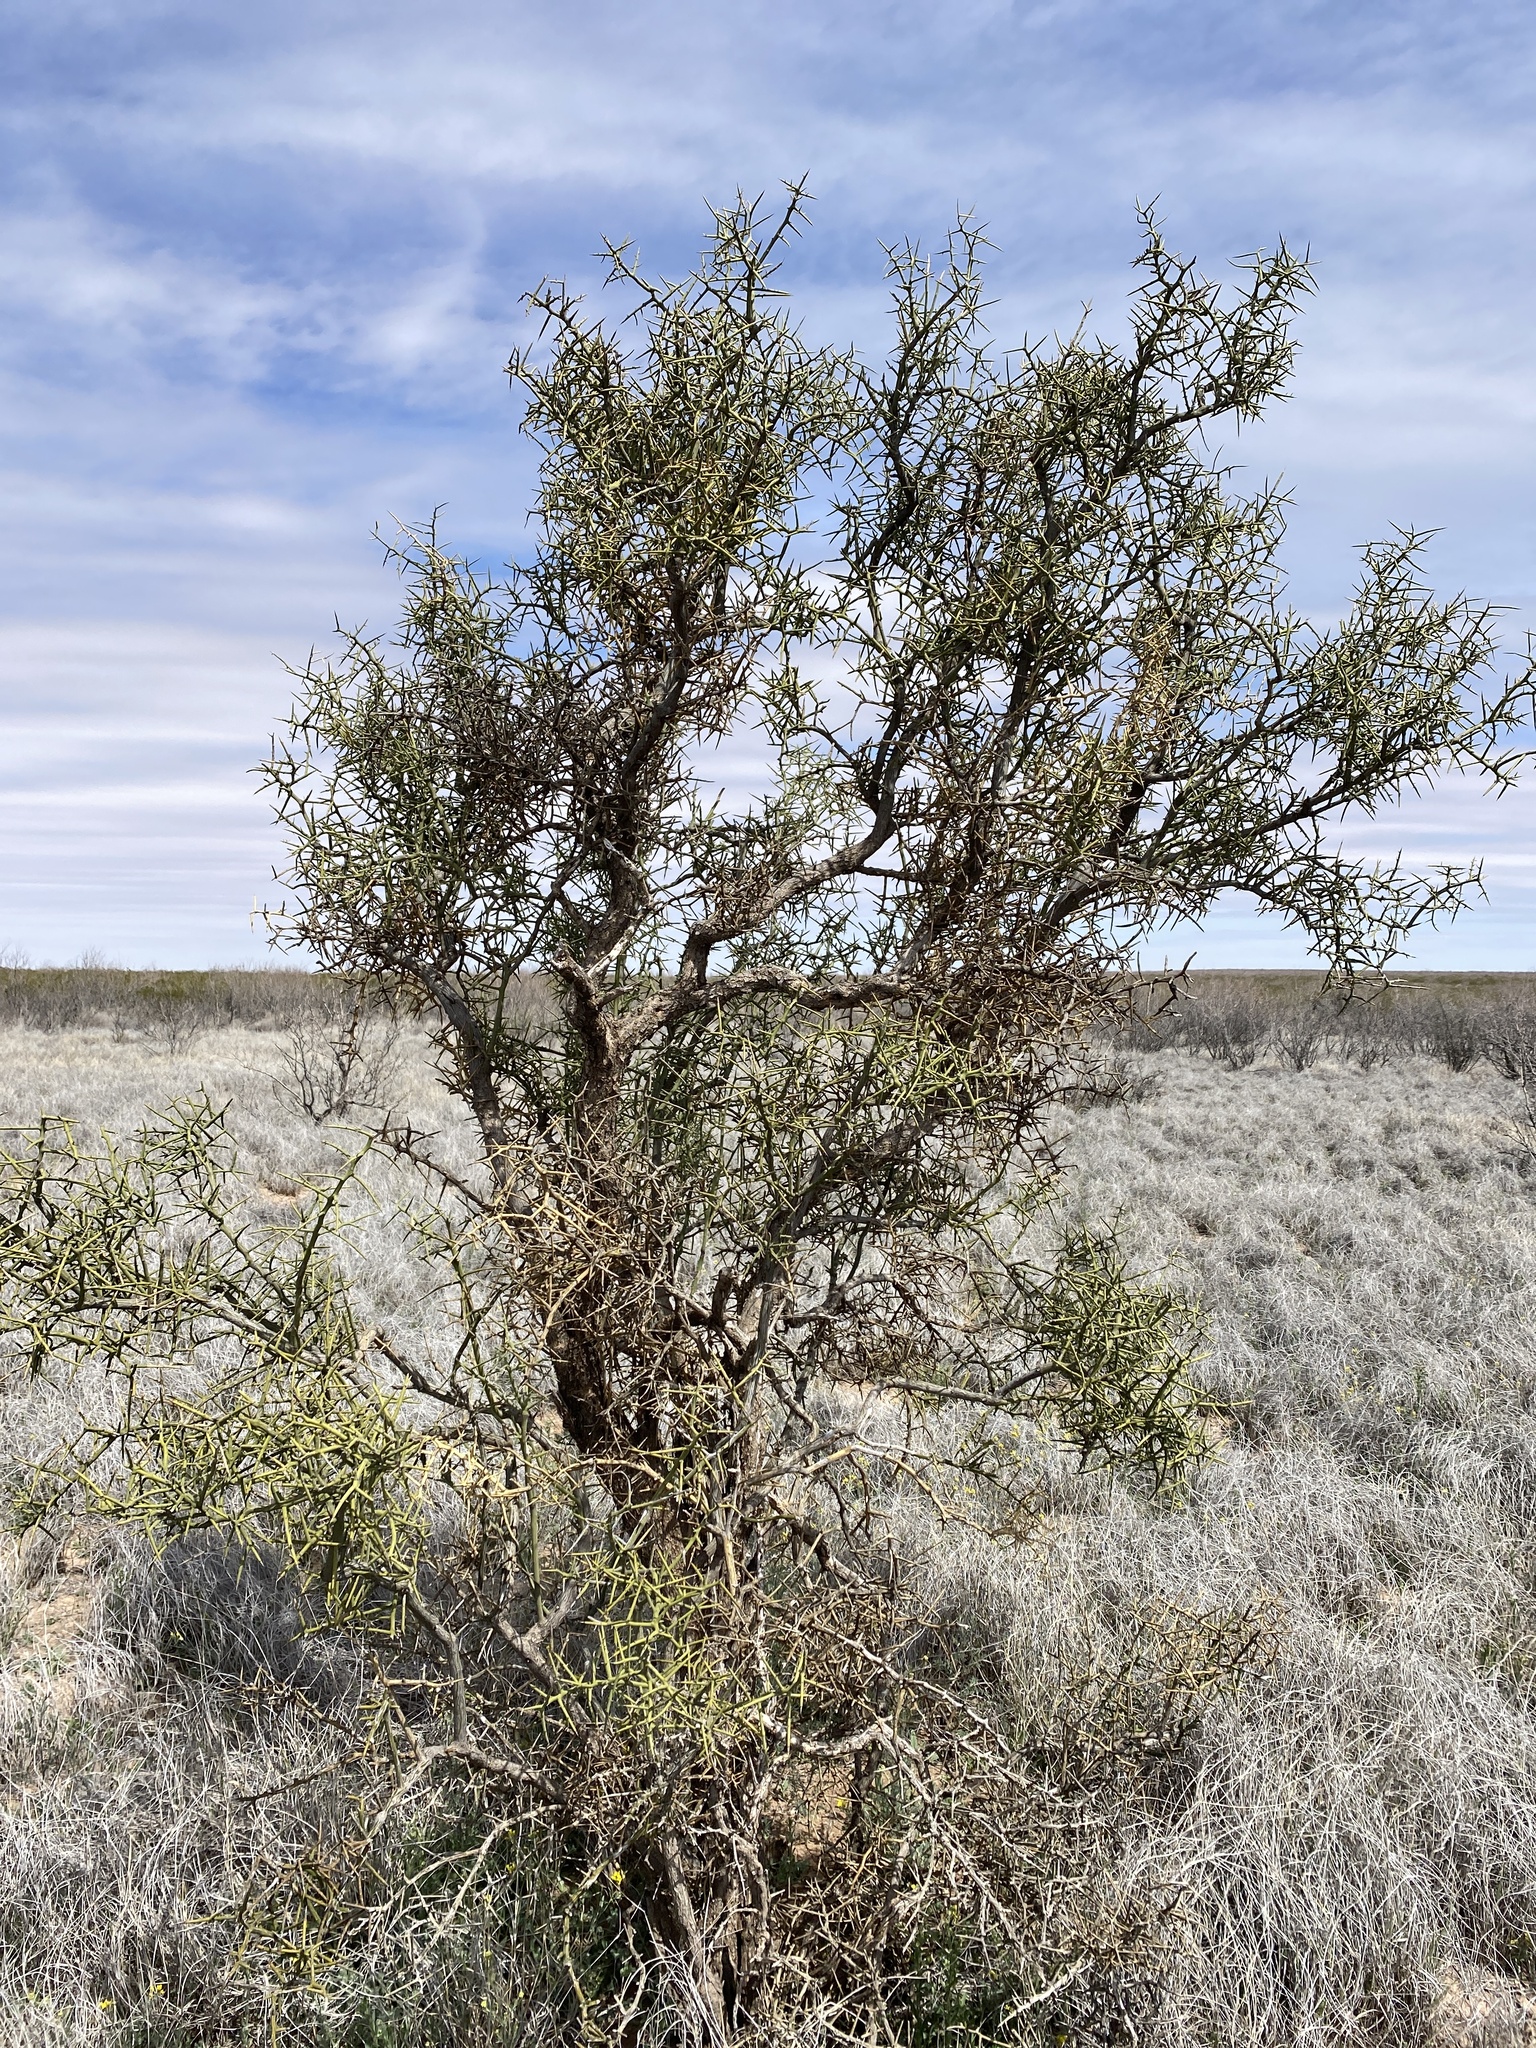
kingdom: Plantae
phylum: Tracheophyta
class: Magnoliopsida
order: Brassicales
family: Koeberliniaceae
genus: Koeberlinia
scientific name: Koeberlinia spinosa
